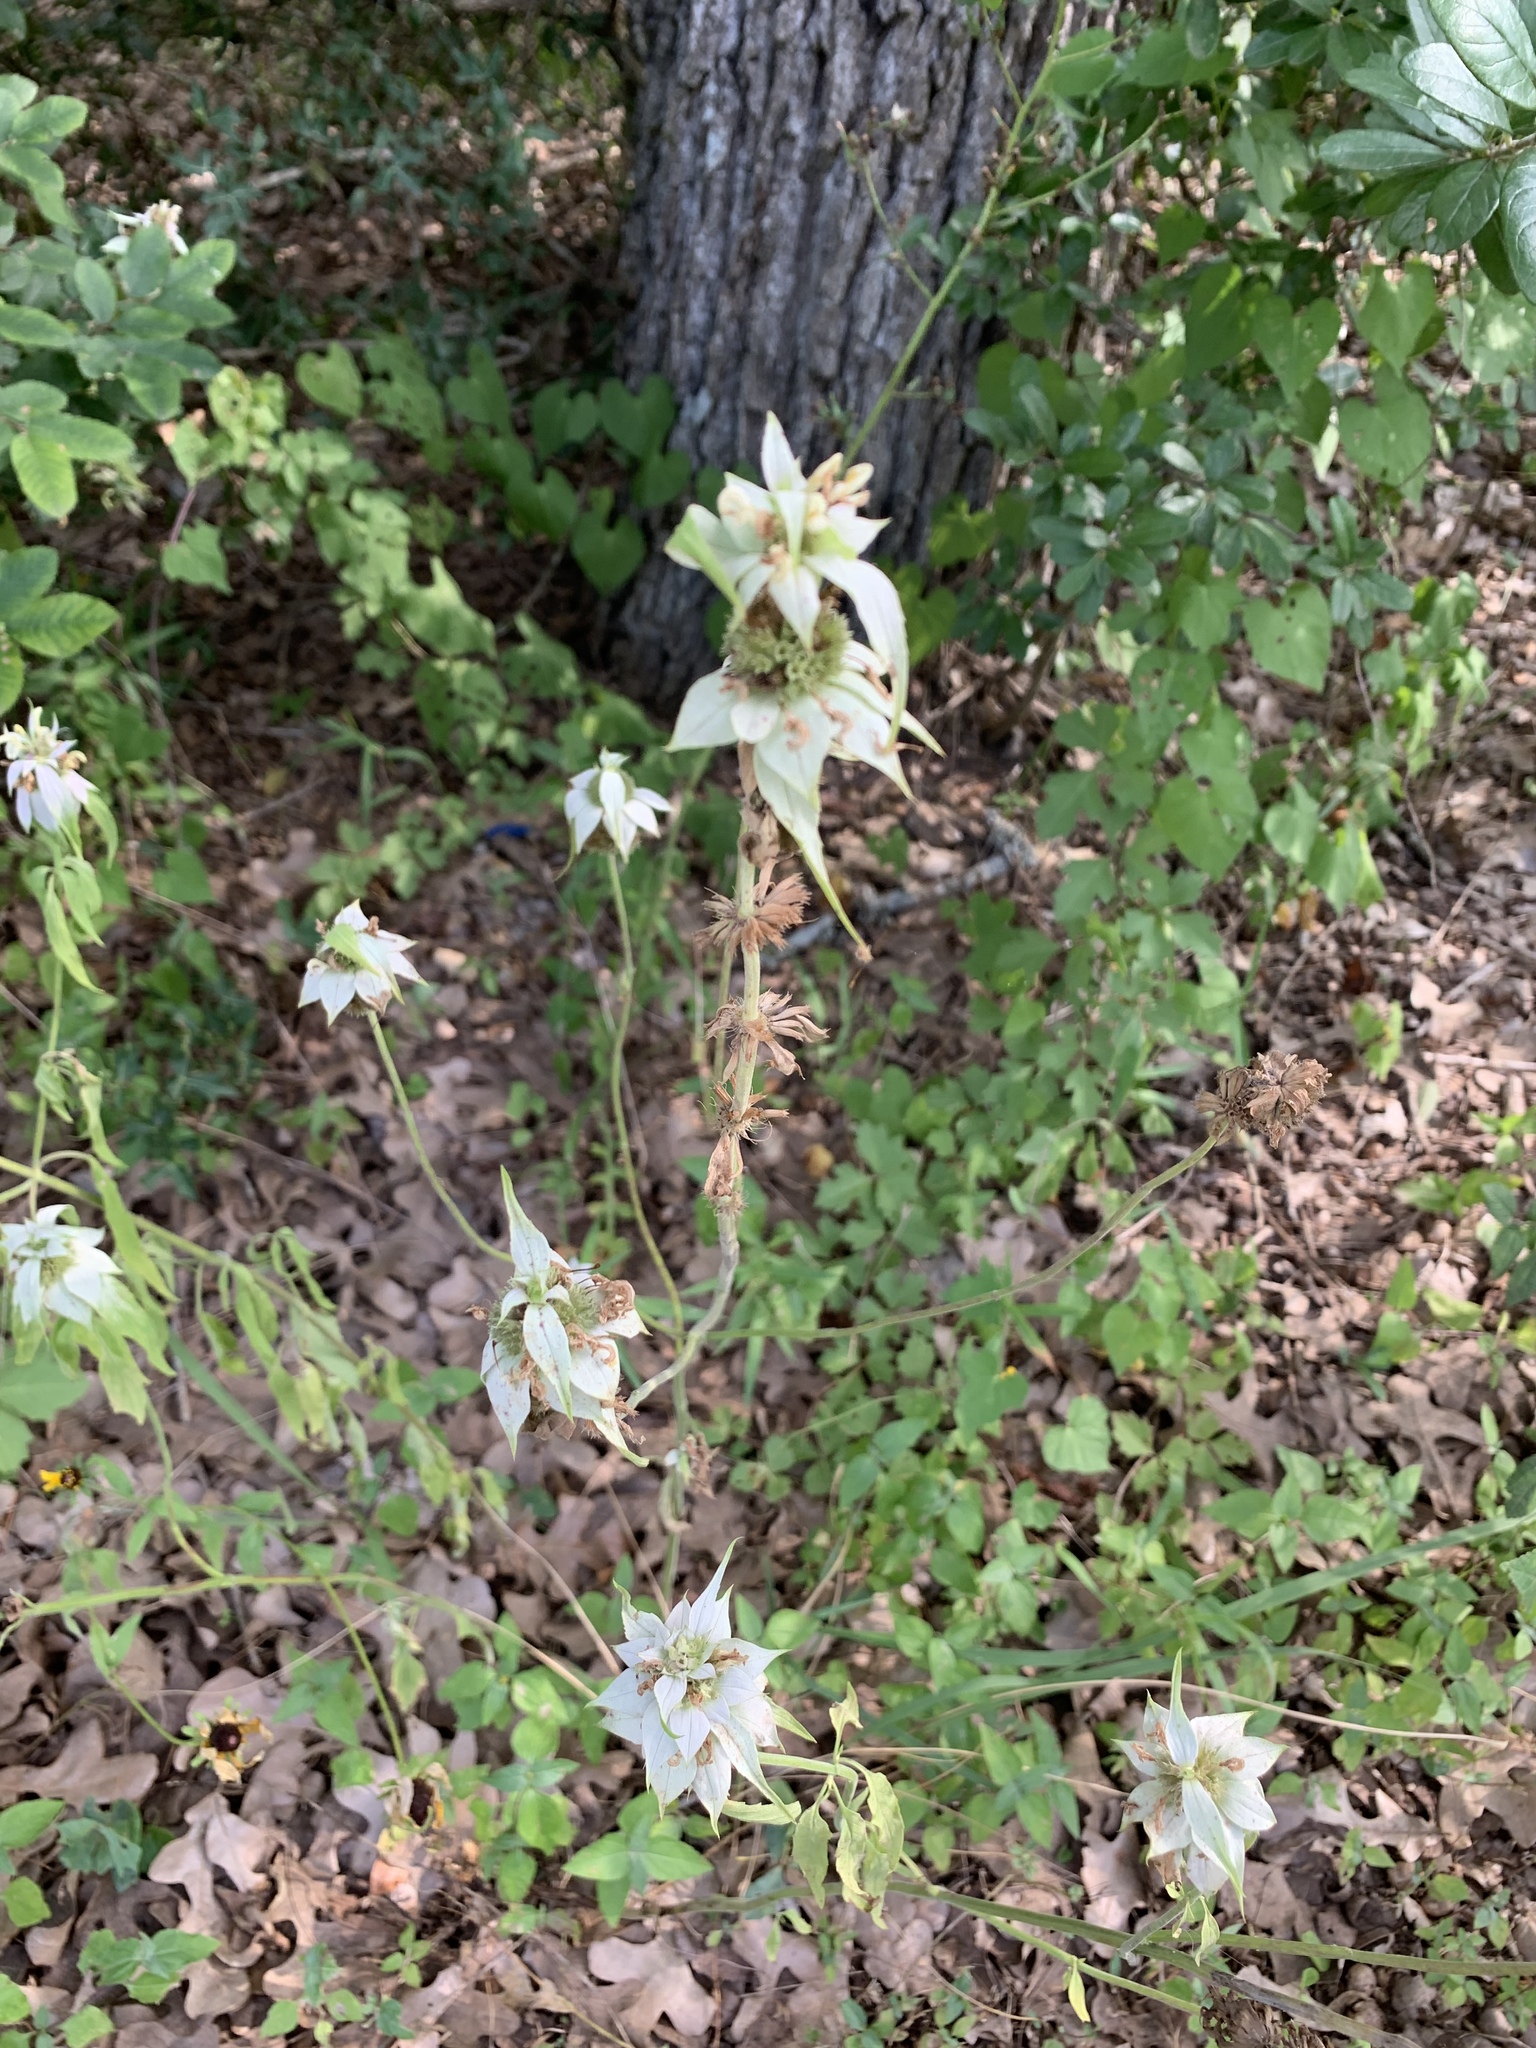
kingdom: Plantae
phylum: Tracheophyta
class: Magnoliopsida
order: Lamiales
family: Lamiaceae
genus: Monarda
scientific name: Monarda punctata
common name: Dotted monarda
